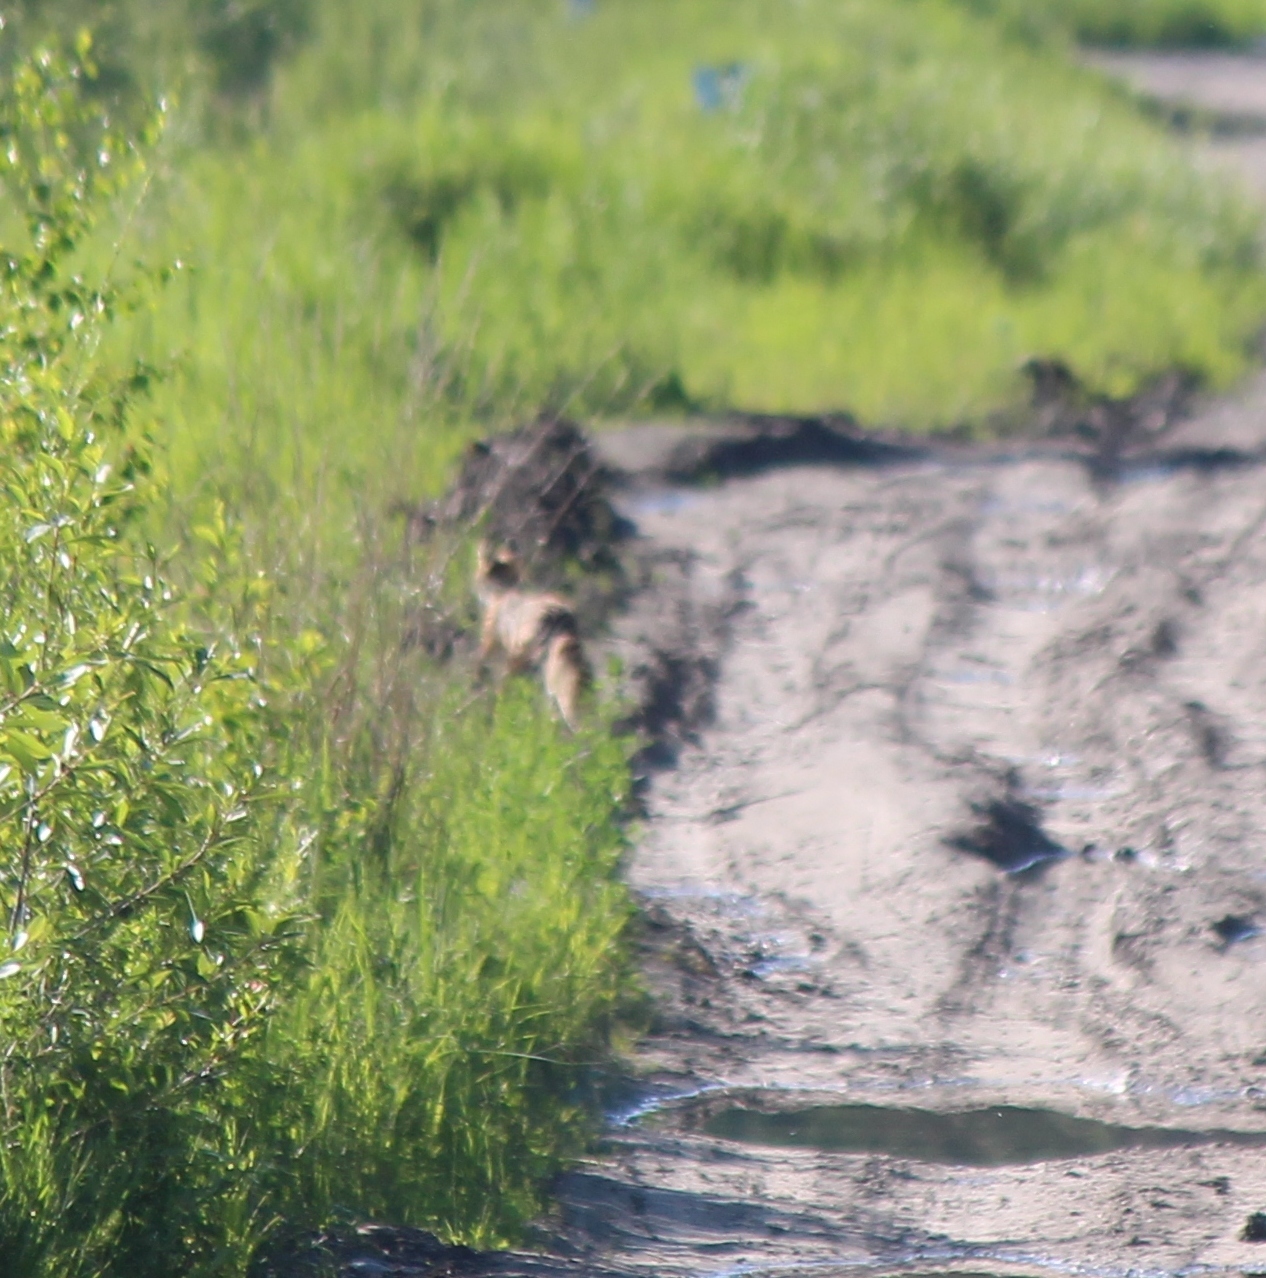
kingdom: Animalia
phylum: Chordata
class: Mammalia
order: Carnivora
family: Canidae
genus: Vulpes
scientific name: Vulpes vulpes
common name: Red fox
